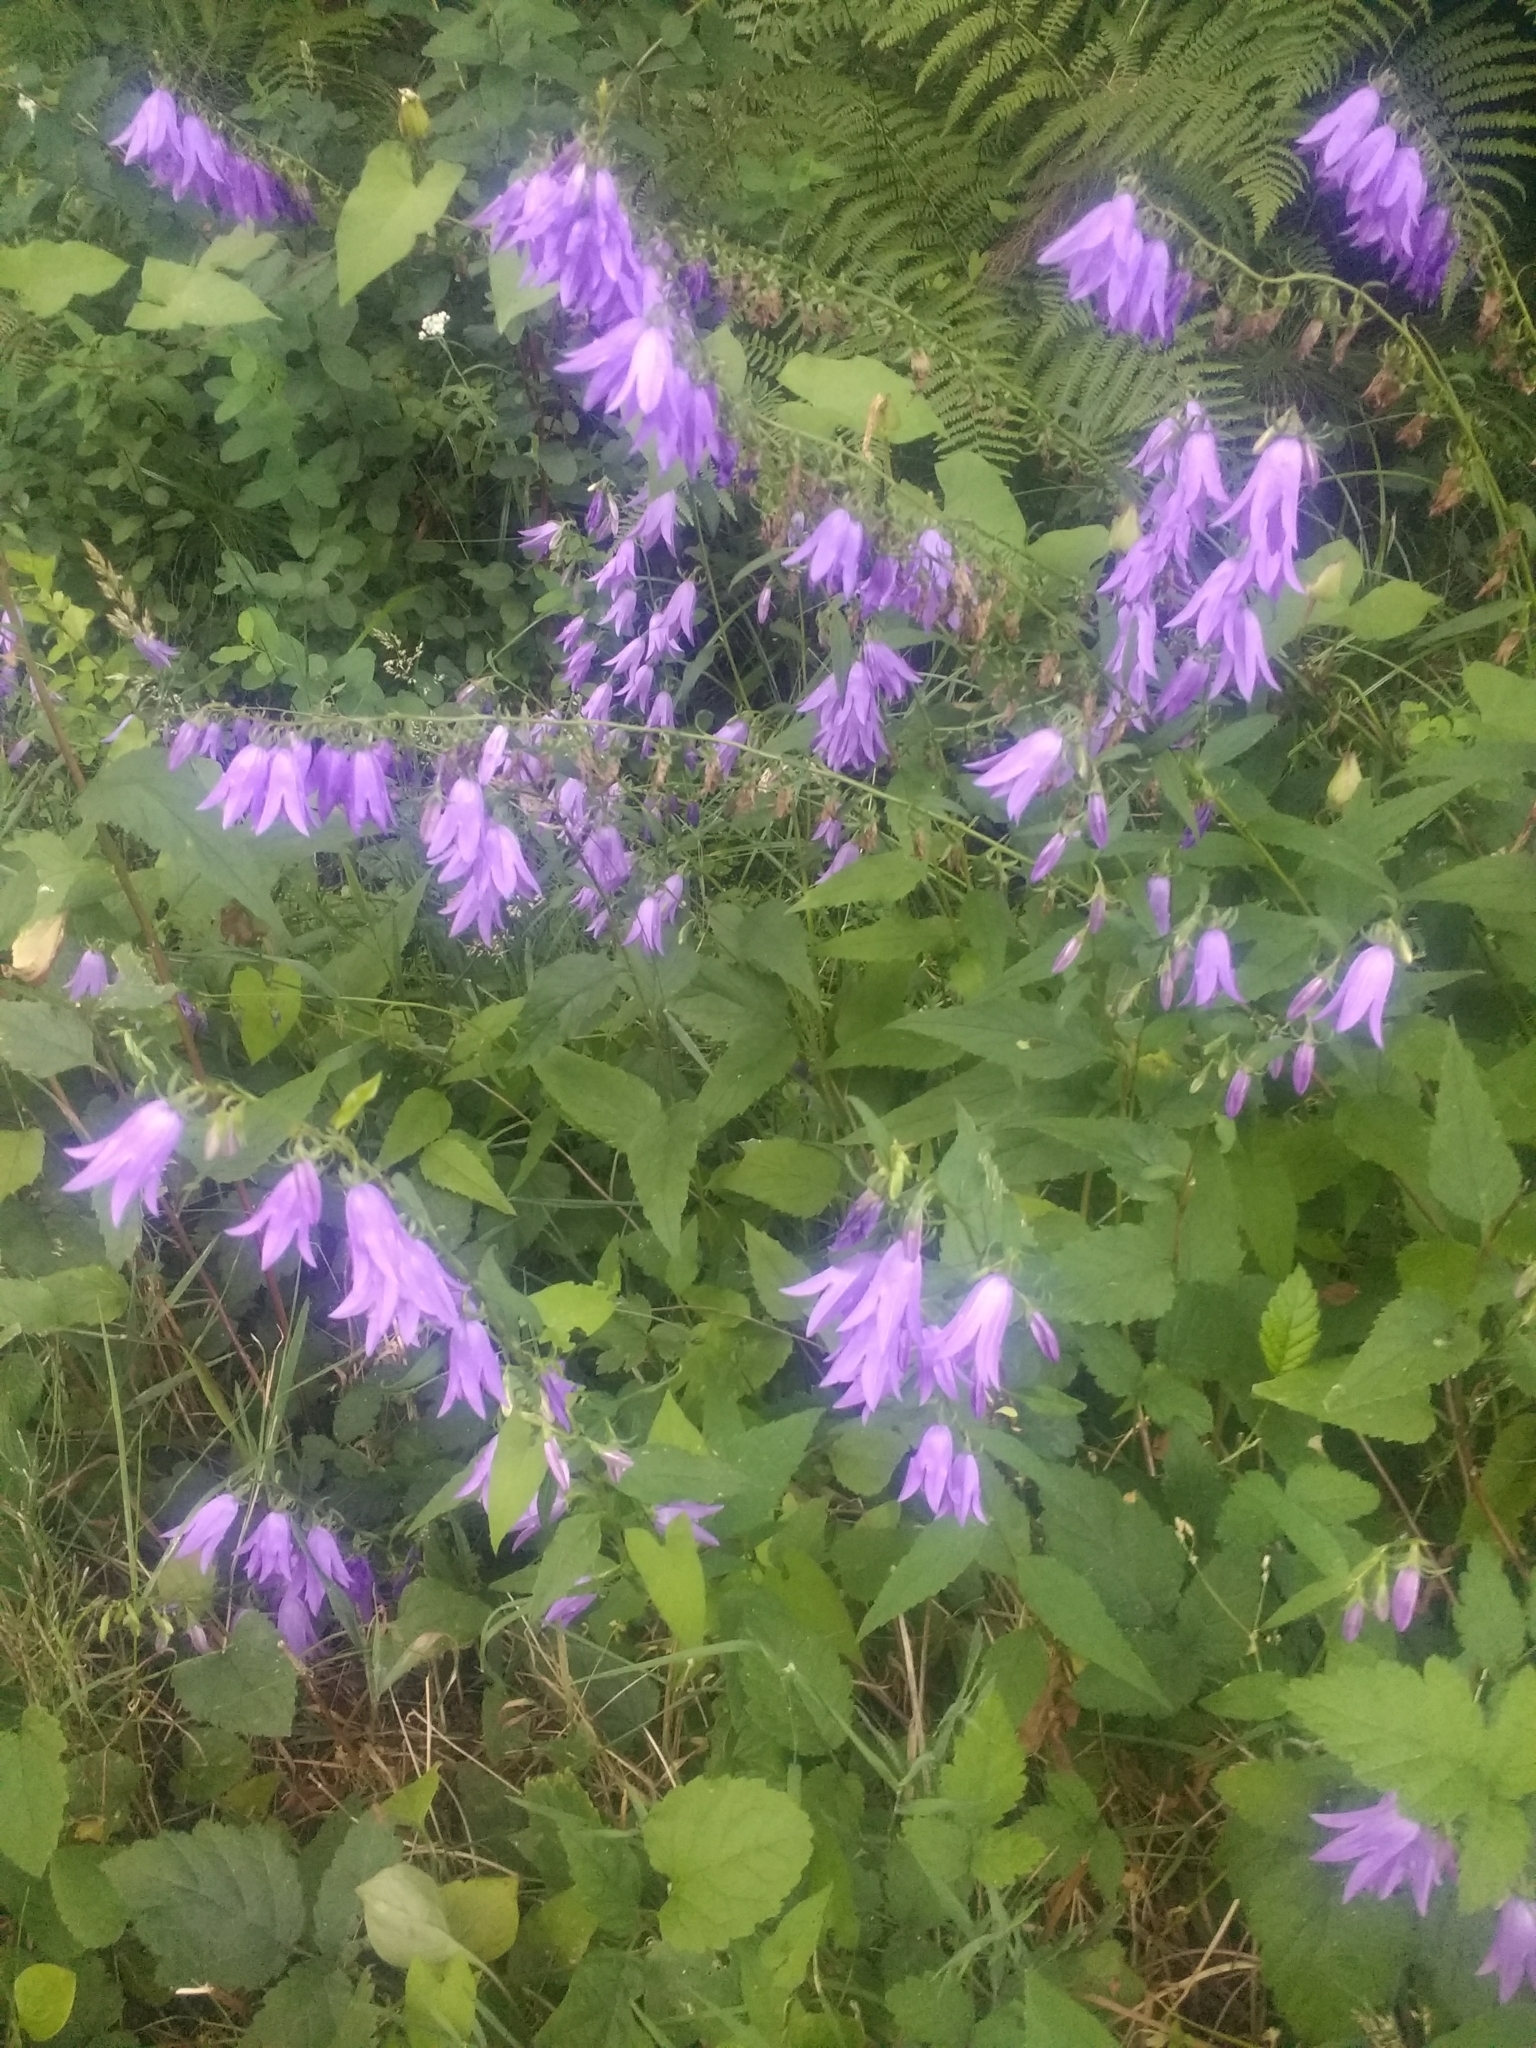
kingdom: Plantae
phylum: Tracheophyta
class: Magnoliopsida
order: Asterales
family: Campanulaceae
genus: Campanula
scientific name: Campanula rapunculoides
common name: Creeping bellflower
